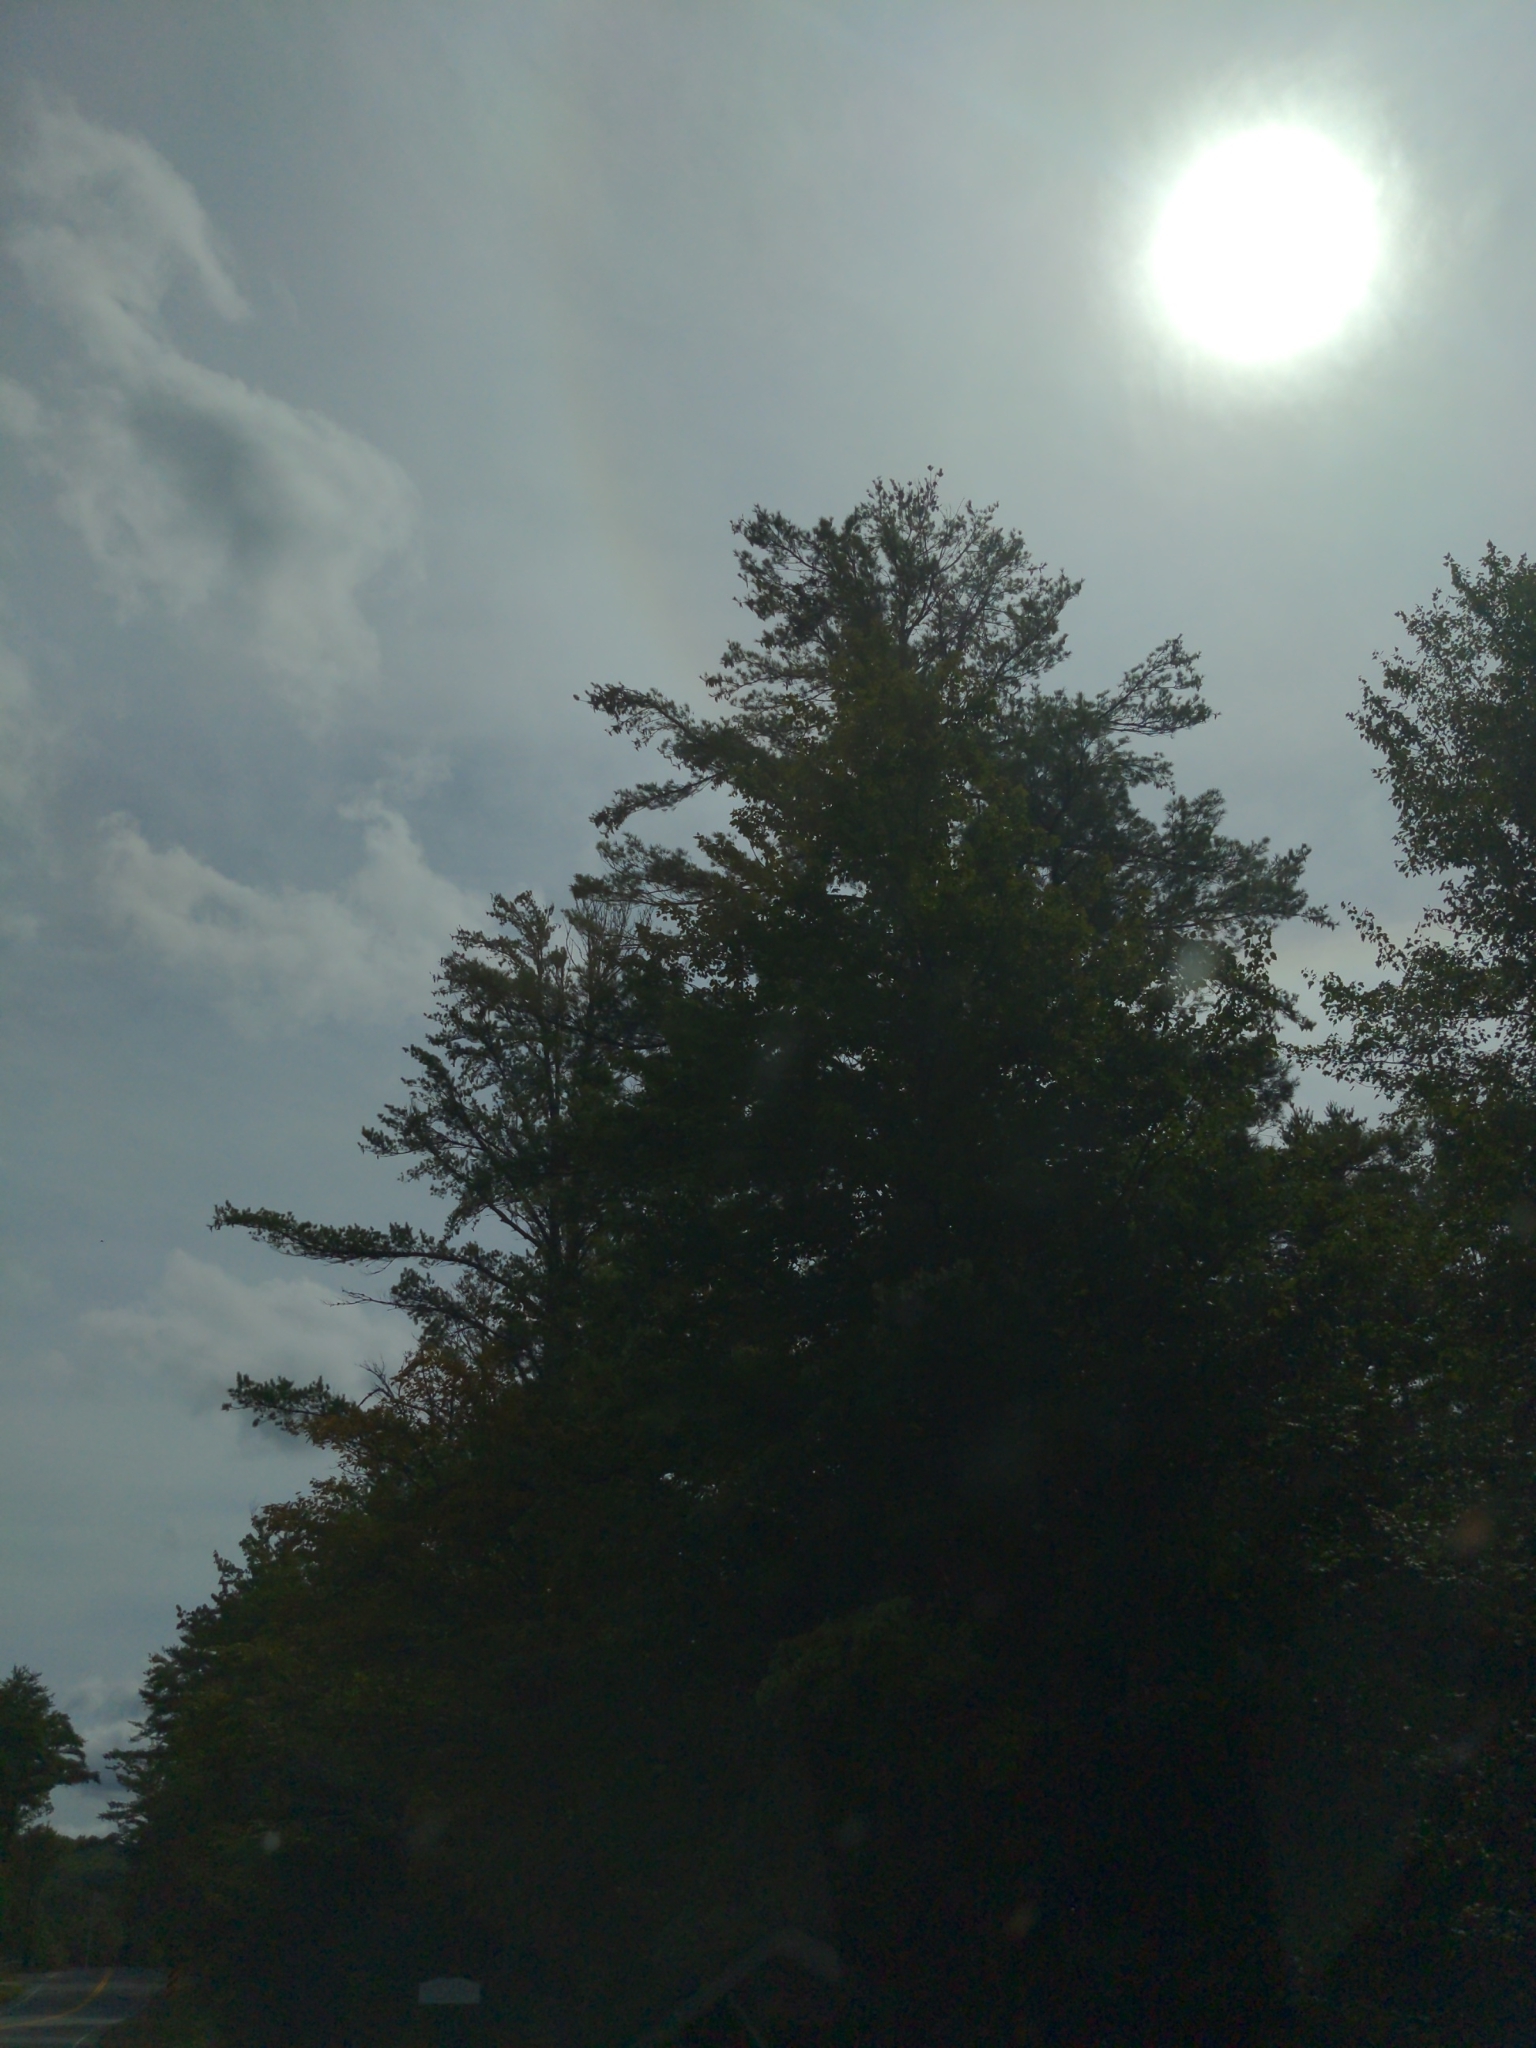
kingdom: Plantae
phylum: Tracheophyta
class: Pinopsida
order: Pinales
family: Pinaceae
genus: Pinus
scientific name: Pinus strobus
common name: Weymouth pine
